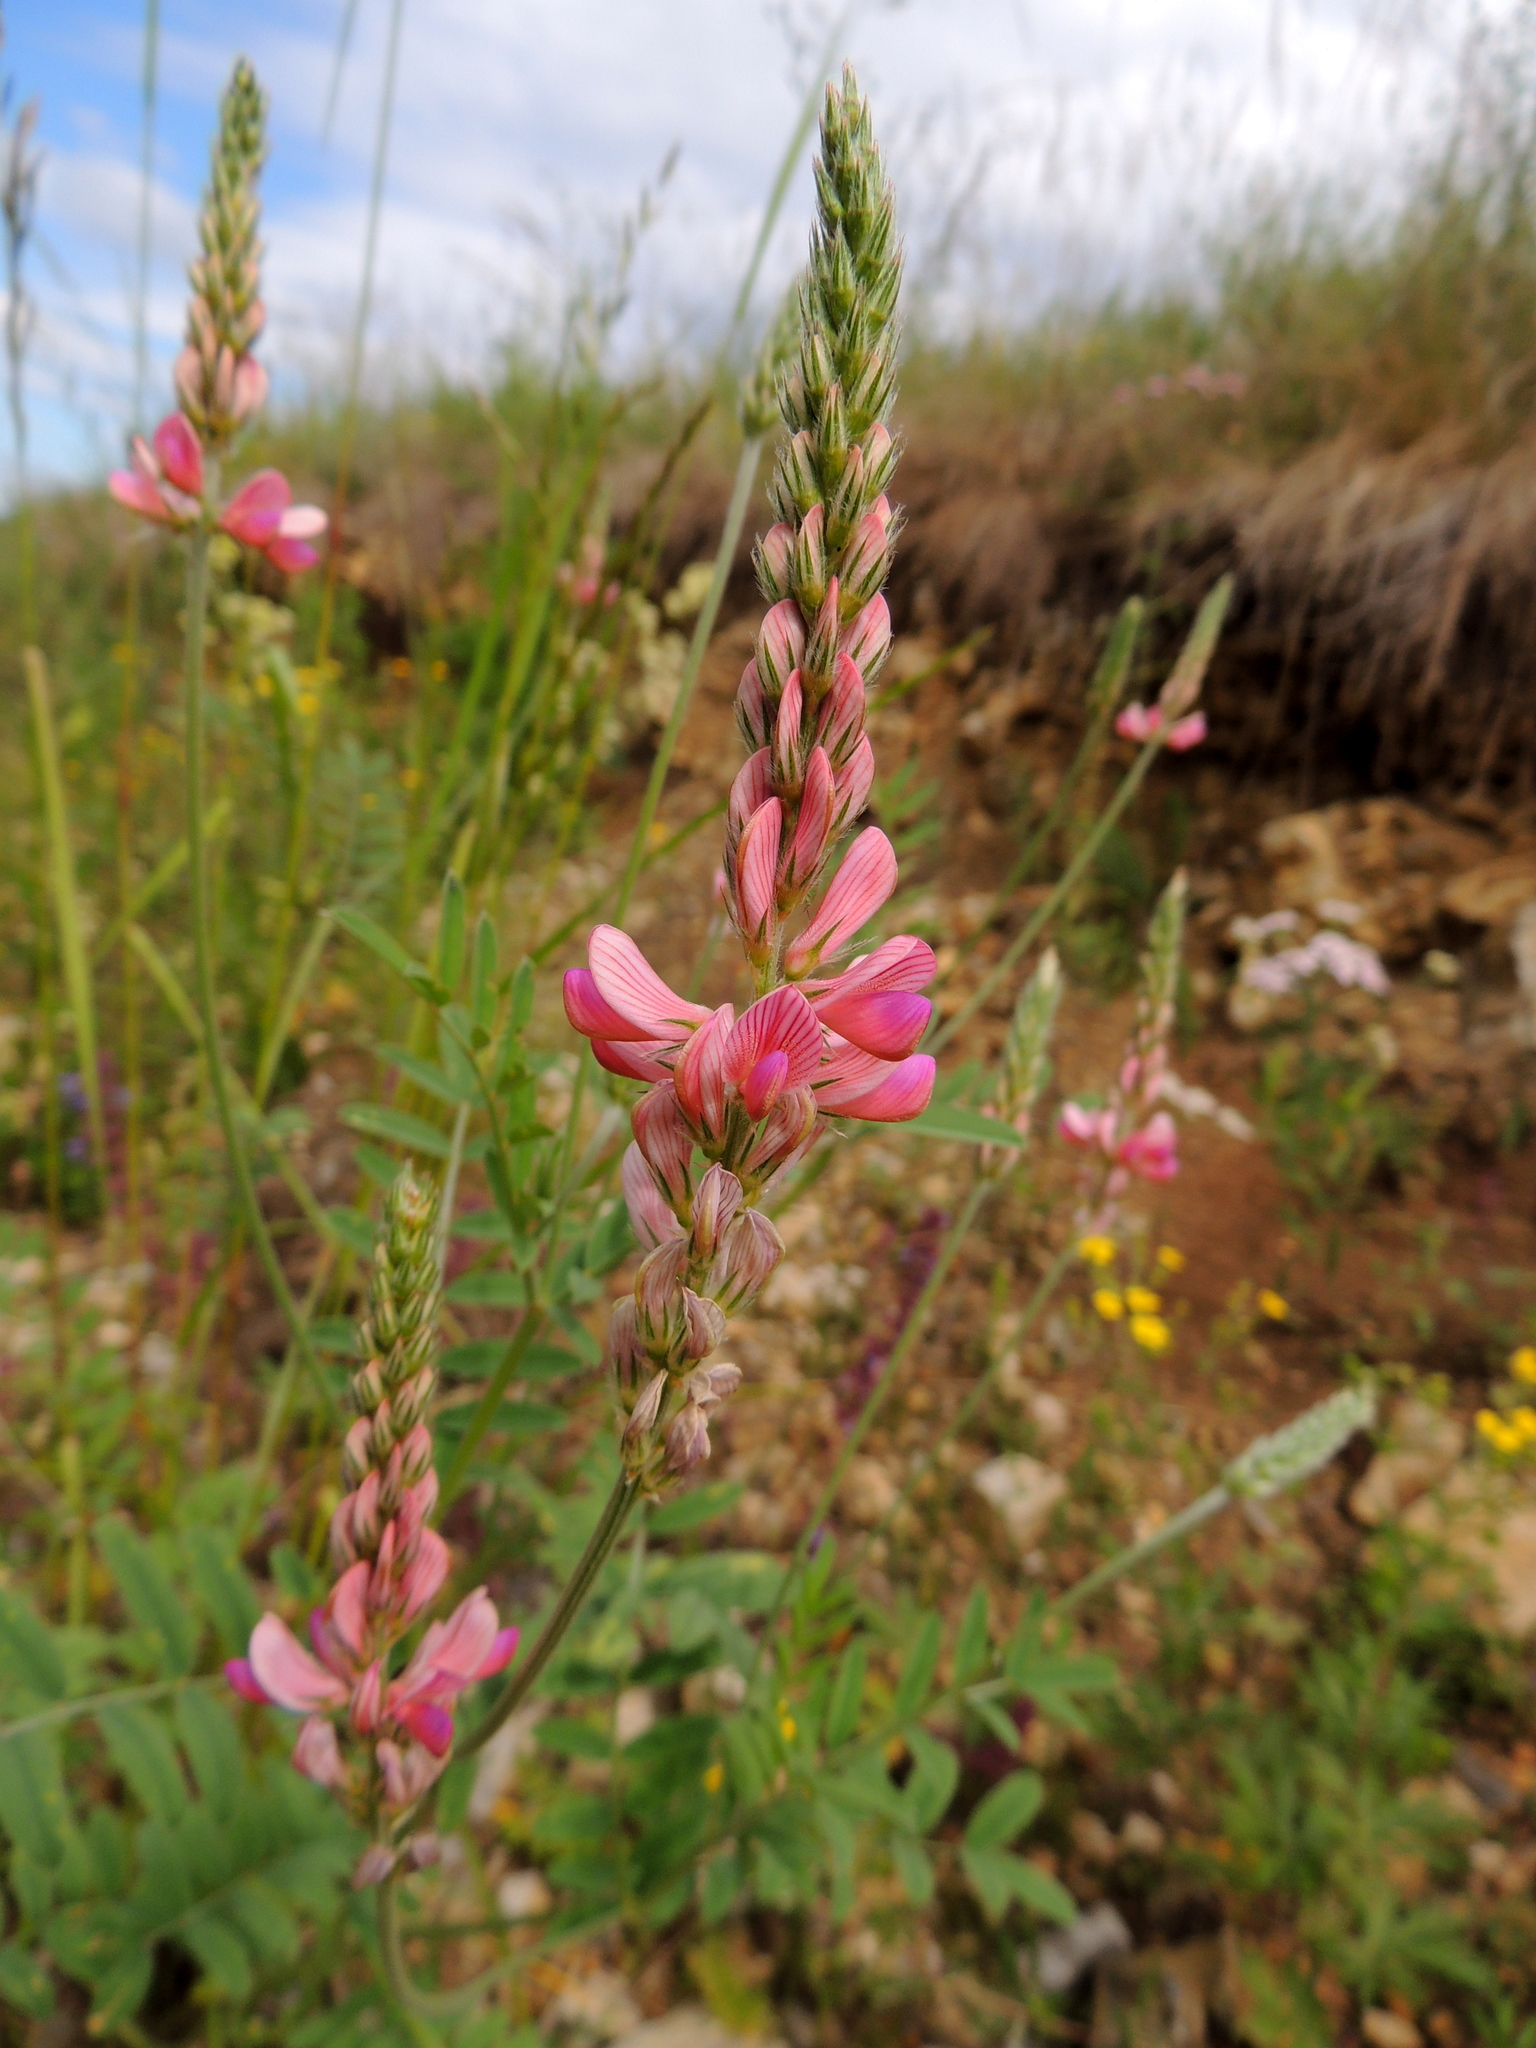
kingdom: Plantae
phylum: Tracheophyta
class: Magnoliopsida
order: Fabales
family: Fabaceae
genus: Onobrychis
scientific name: Onobrychis viciifolia
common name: Sainfoin
